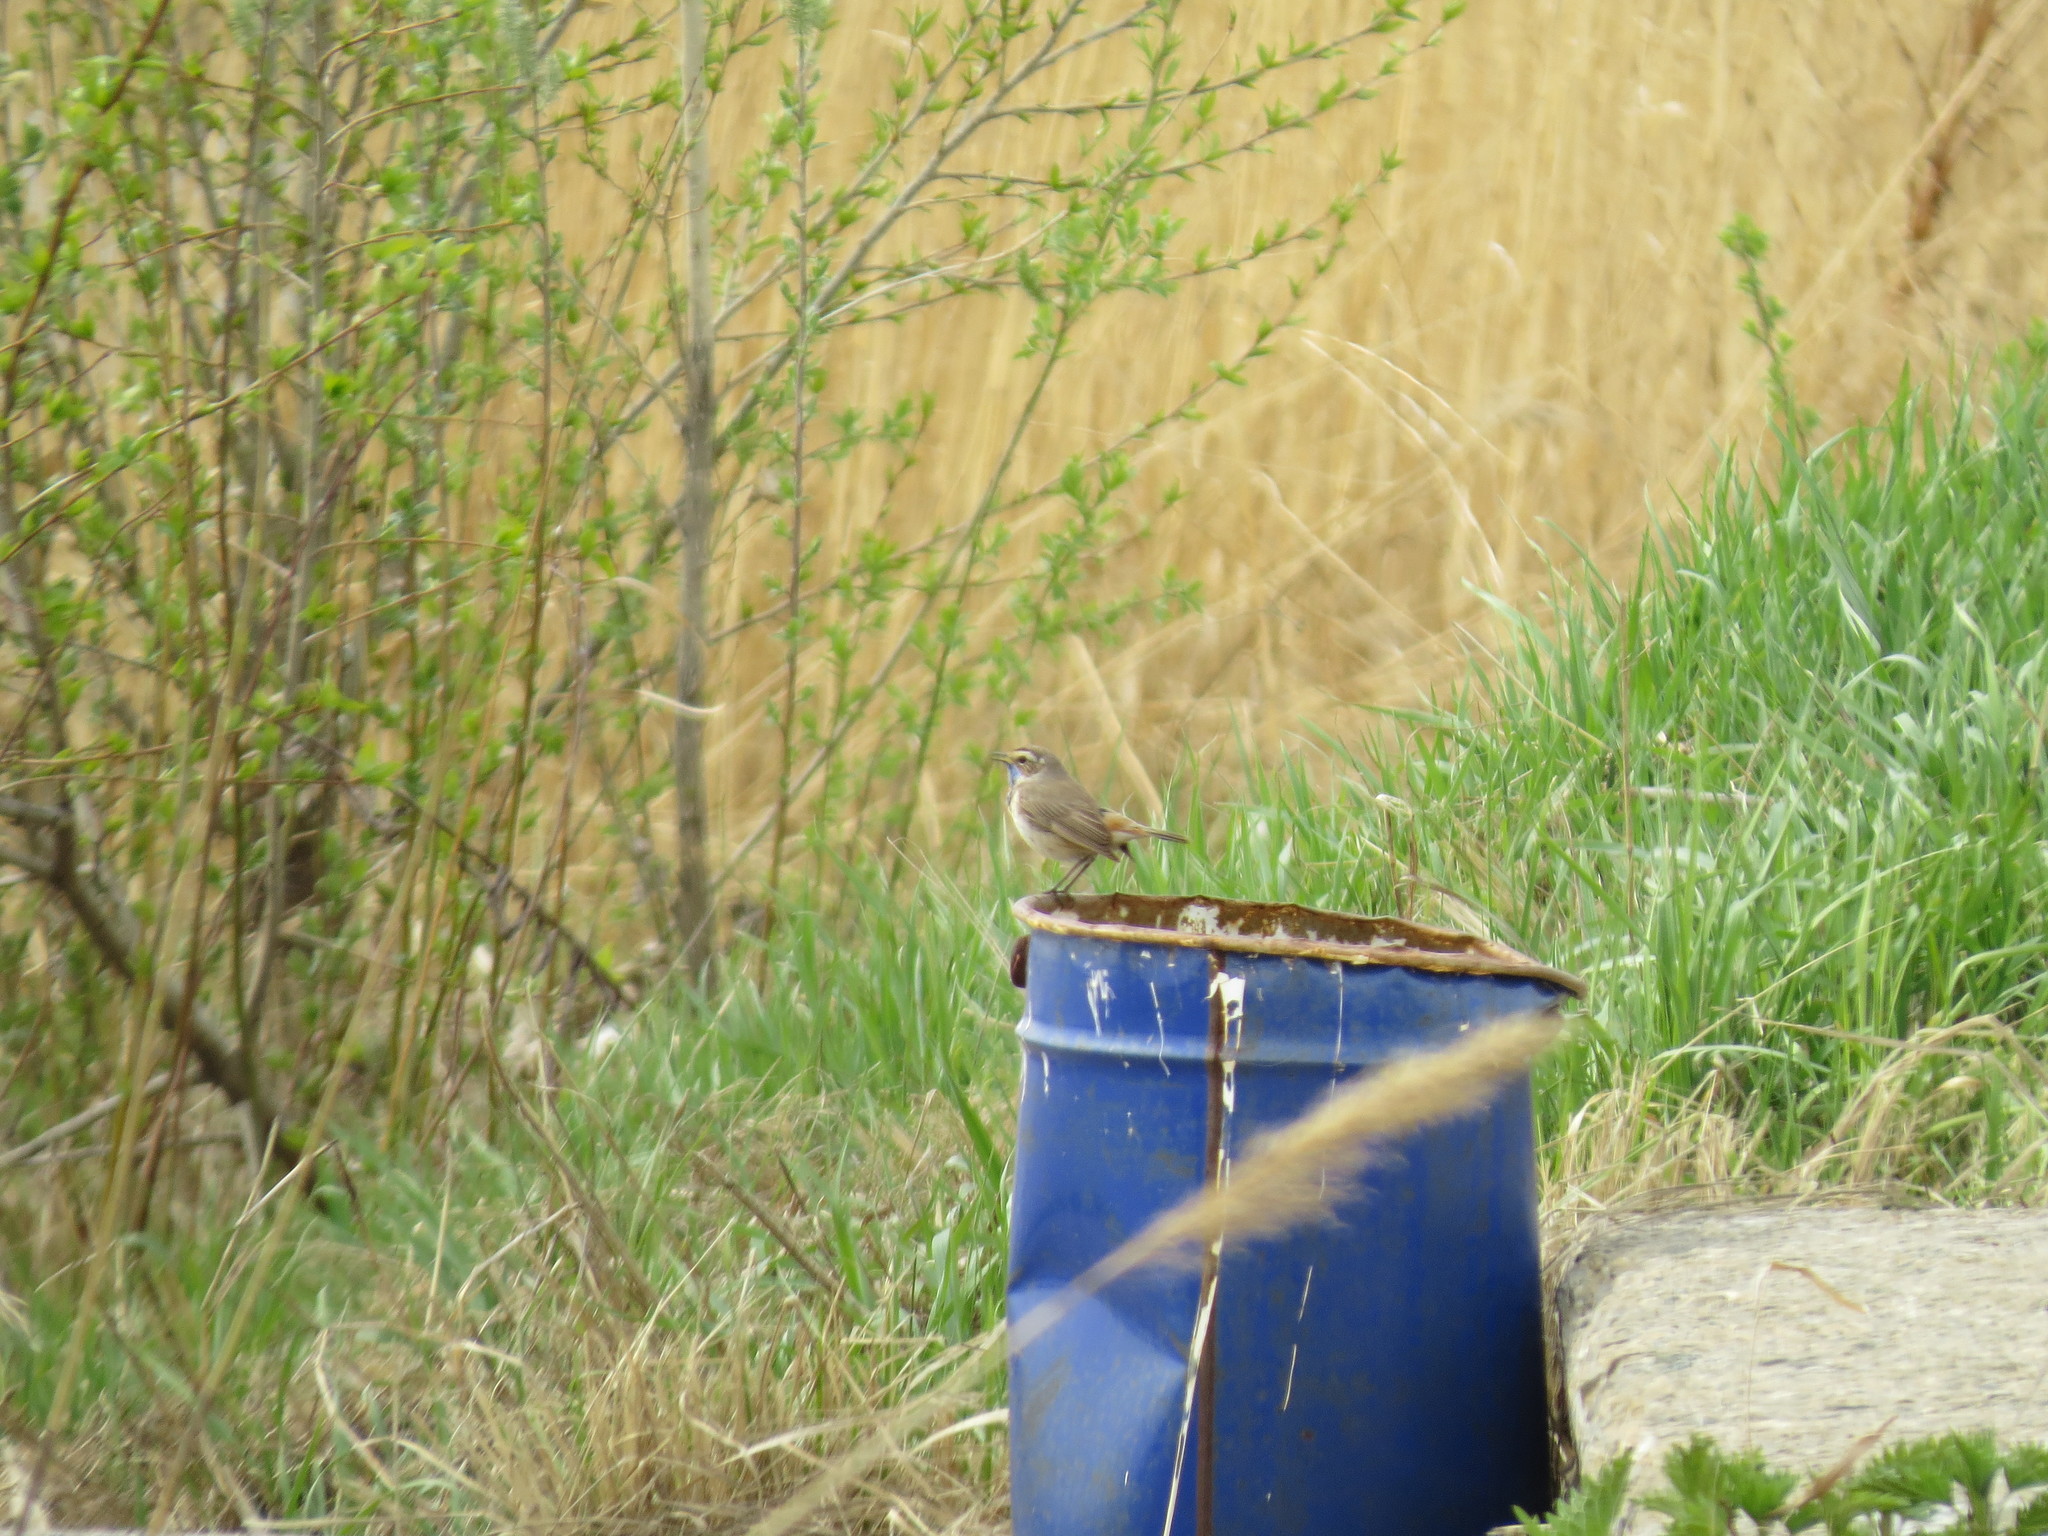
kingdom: Animalia
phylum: Chordata
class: Aves
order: Passeriformes
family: Muscicapidae
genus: Luscinia
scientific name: Luscinia svecica
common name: Bluethroat
